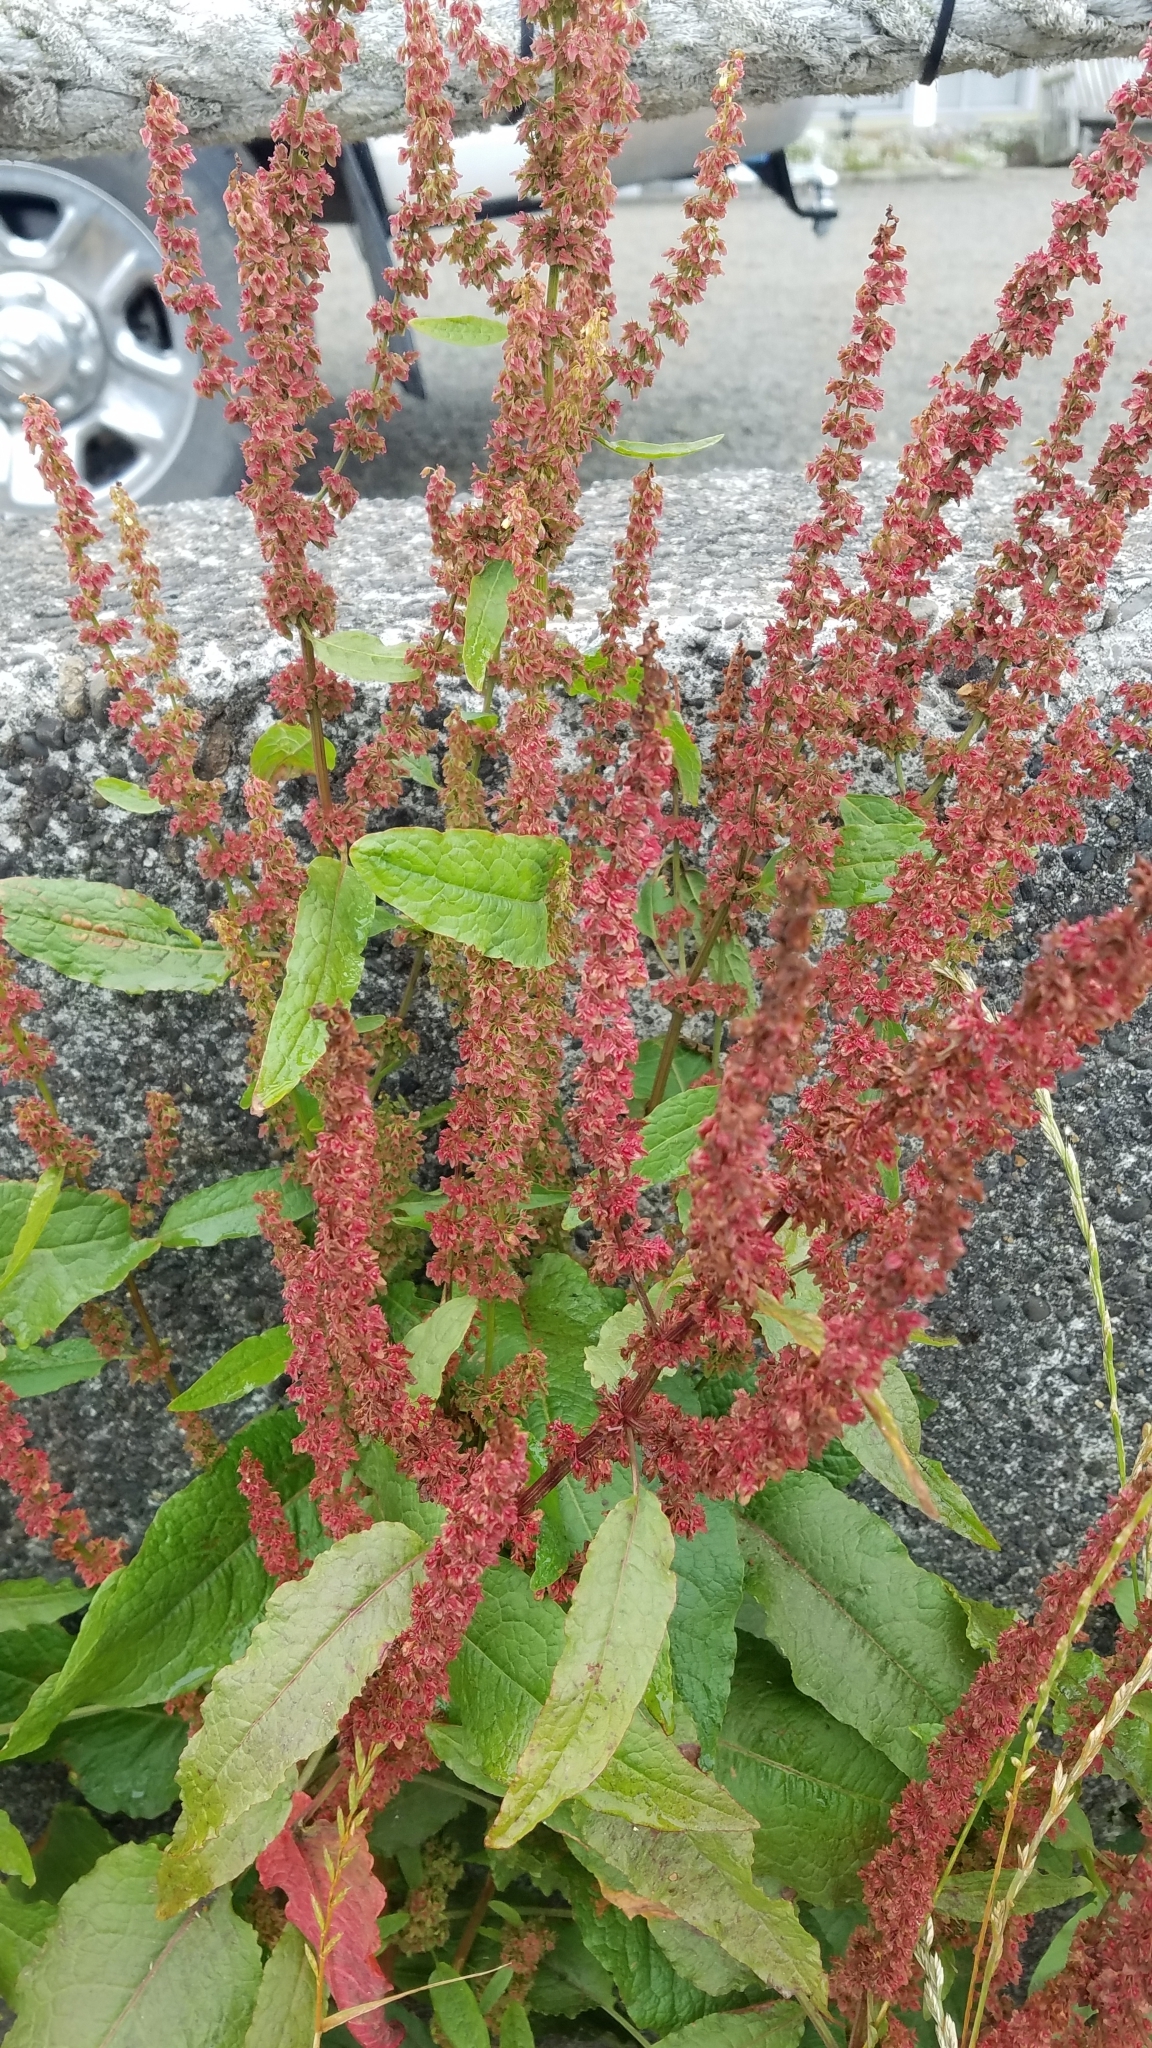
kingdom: Plantae
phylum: Tracheophyta
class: Magnoliopsida
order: Caryophyllales
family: Polygonaceae
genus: Rumex
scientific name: Rumex crispus
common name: Curled dock
